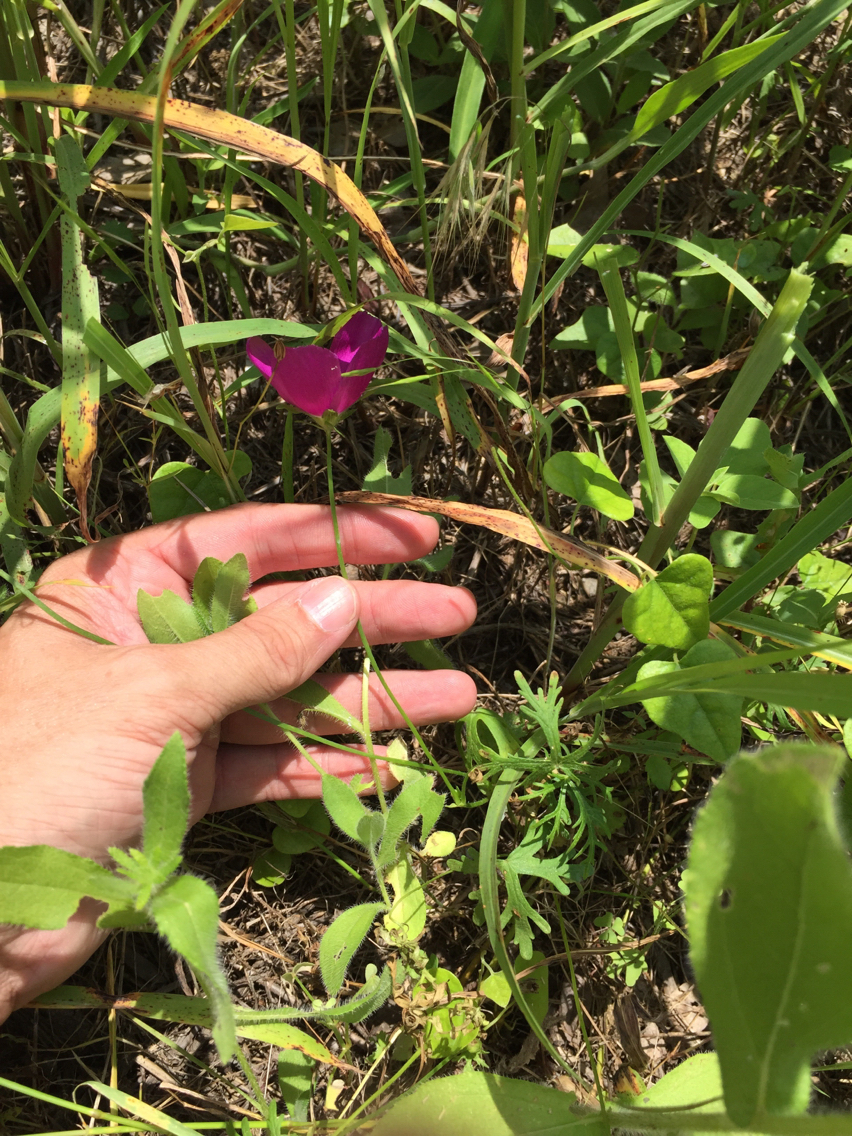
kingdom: Plantae
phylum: Tracheophyta
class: Magnoliopsida
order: Malvales
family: Malvaceae
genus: Callirhoe
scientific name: Callirhoe involucrata
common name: Purple poppy-mallow
